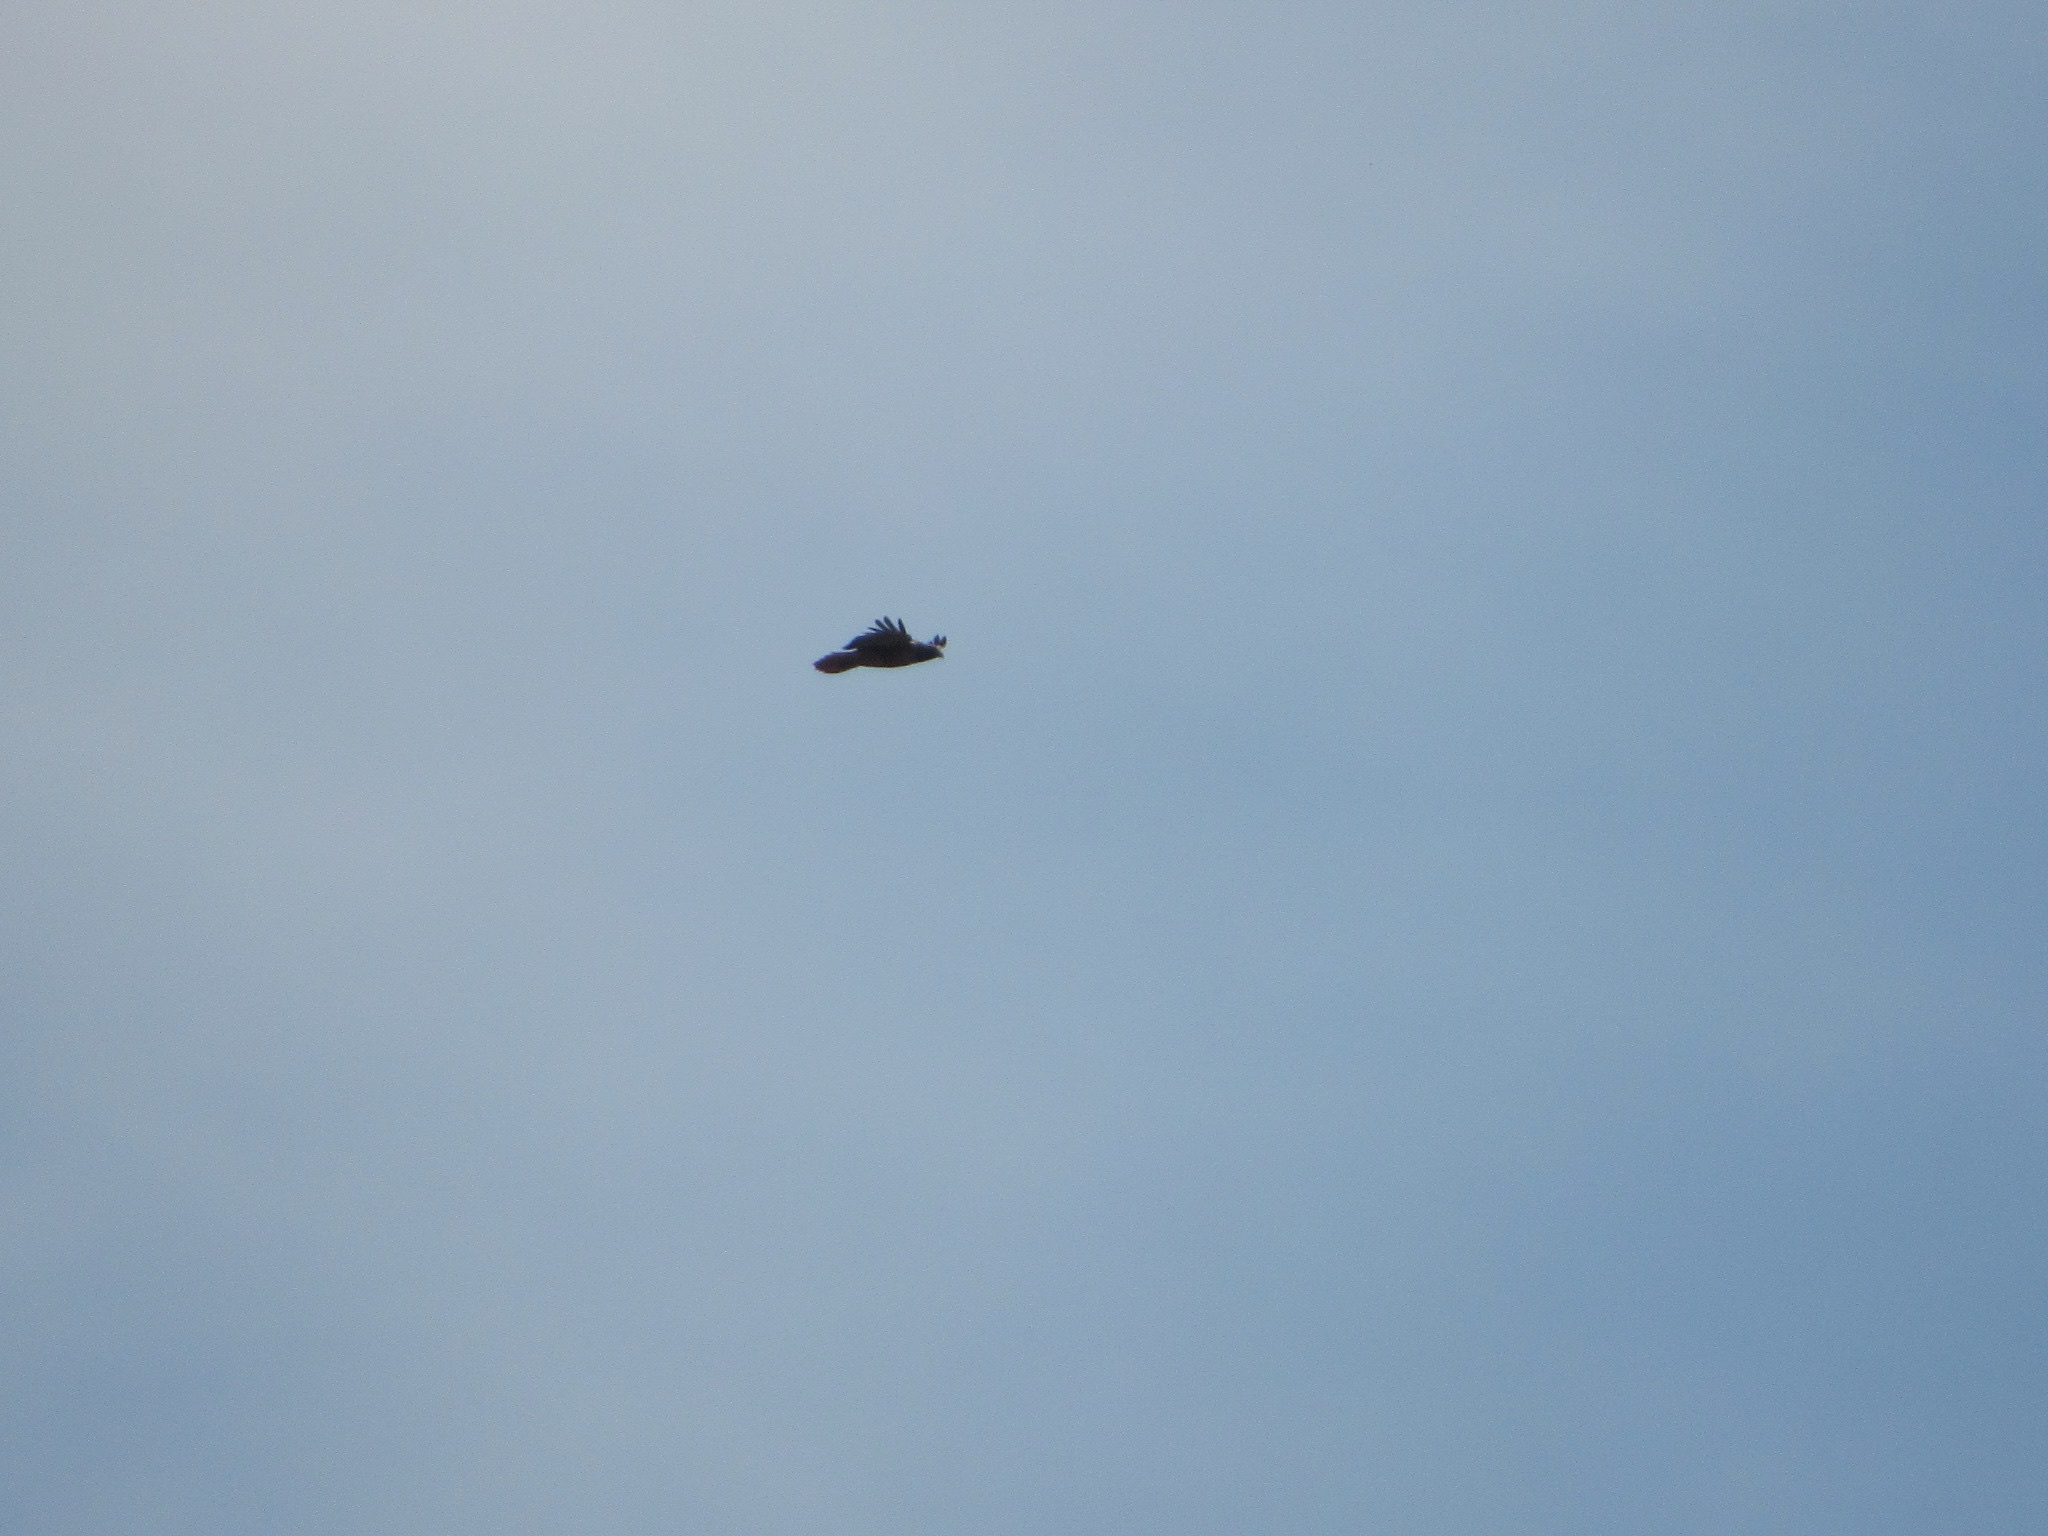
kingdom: Animalia
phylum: Chordata
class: Aves
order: Accipitriformes
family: Accipitridae
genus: Buteo
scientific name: Buteo jamaicensis
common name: Red-tailed hawk
